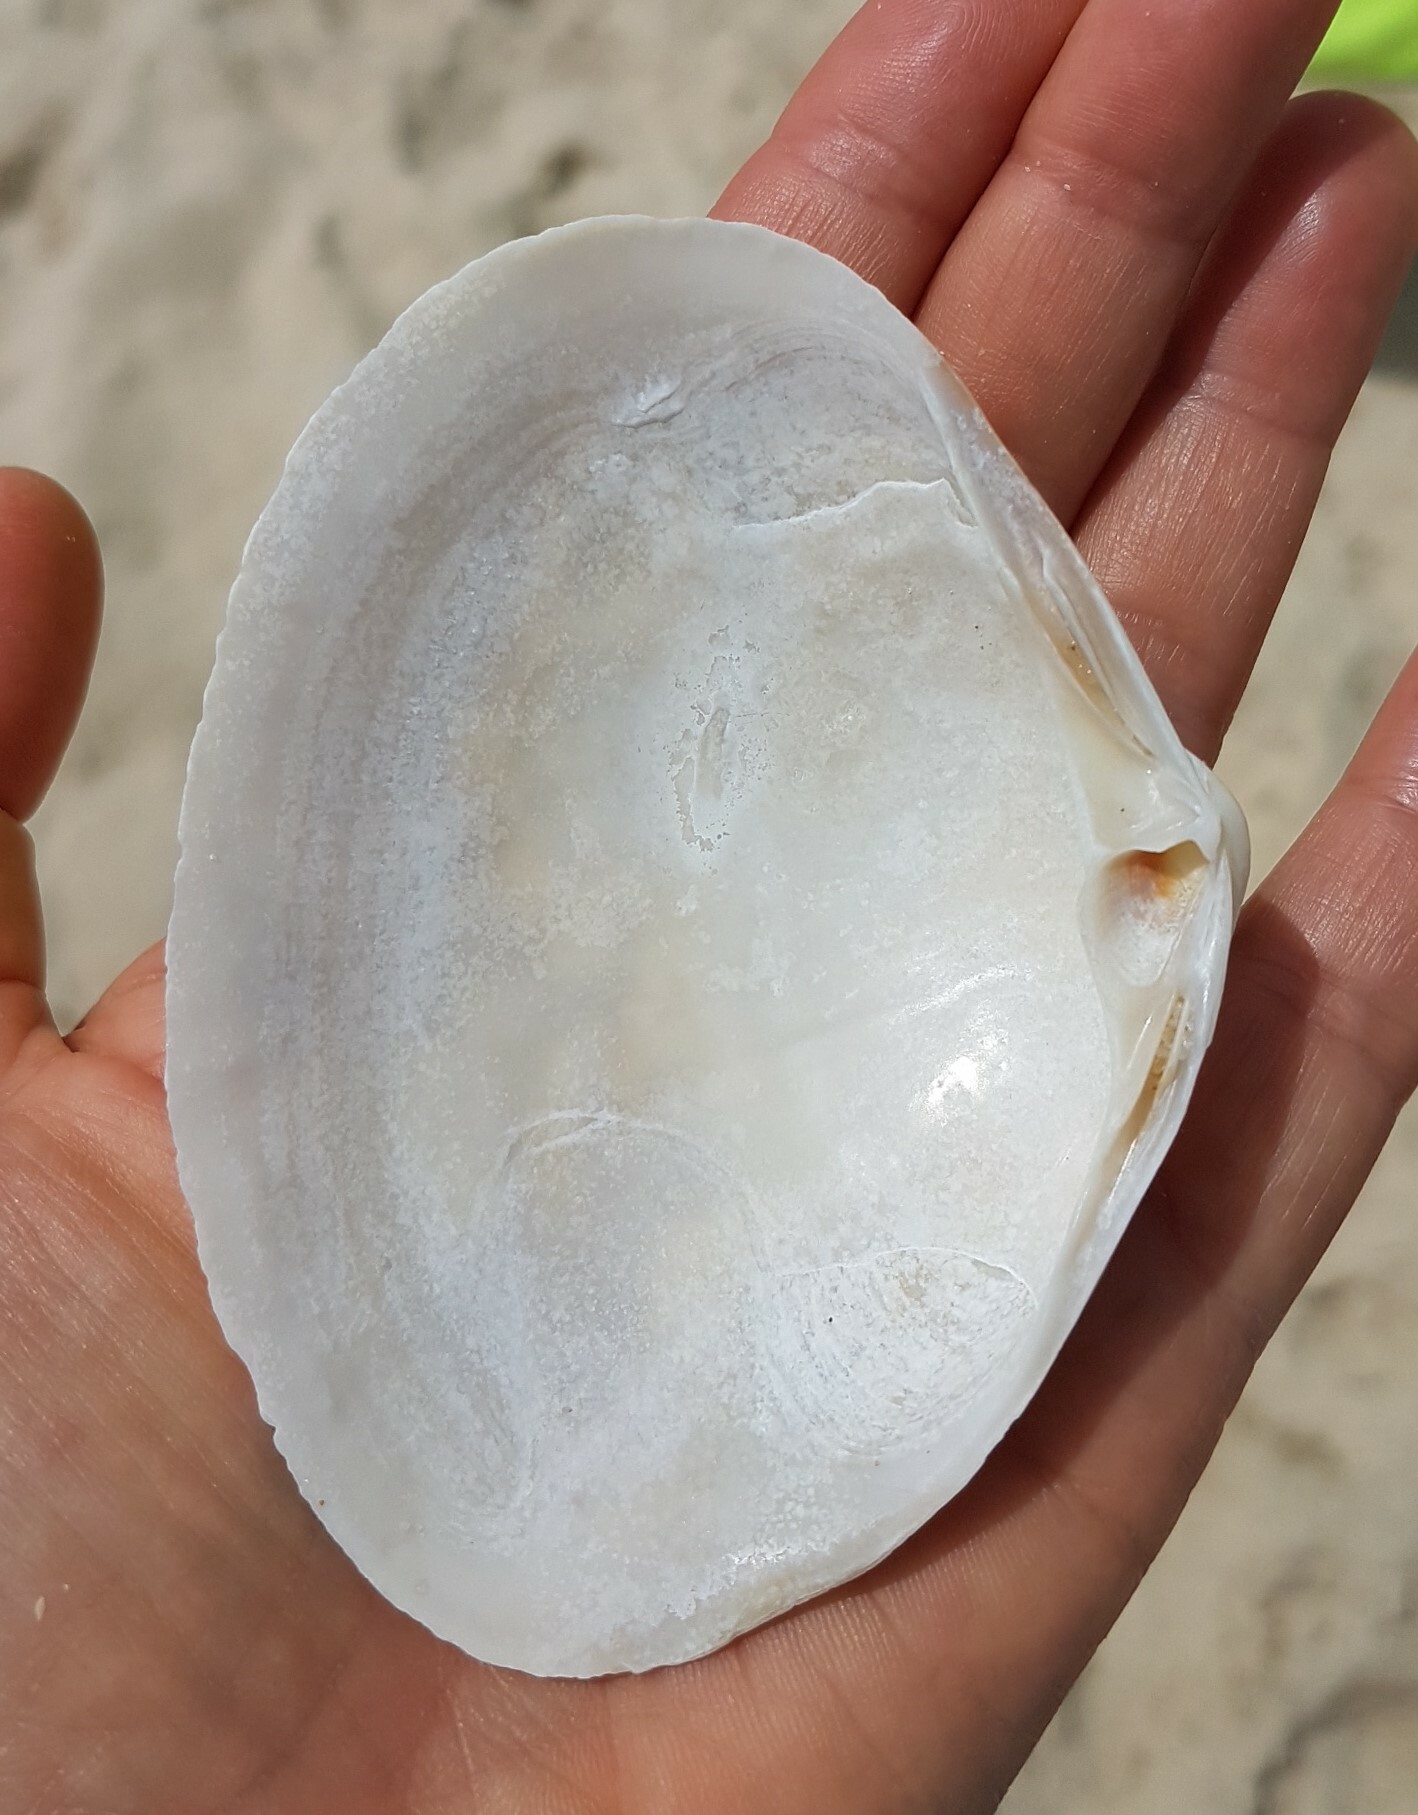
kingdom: Animalia
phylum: Mollusca
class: Bivalvia
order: Venerida
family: Mactridae
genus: Mactra
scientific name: Mactra glauca
